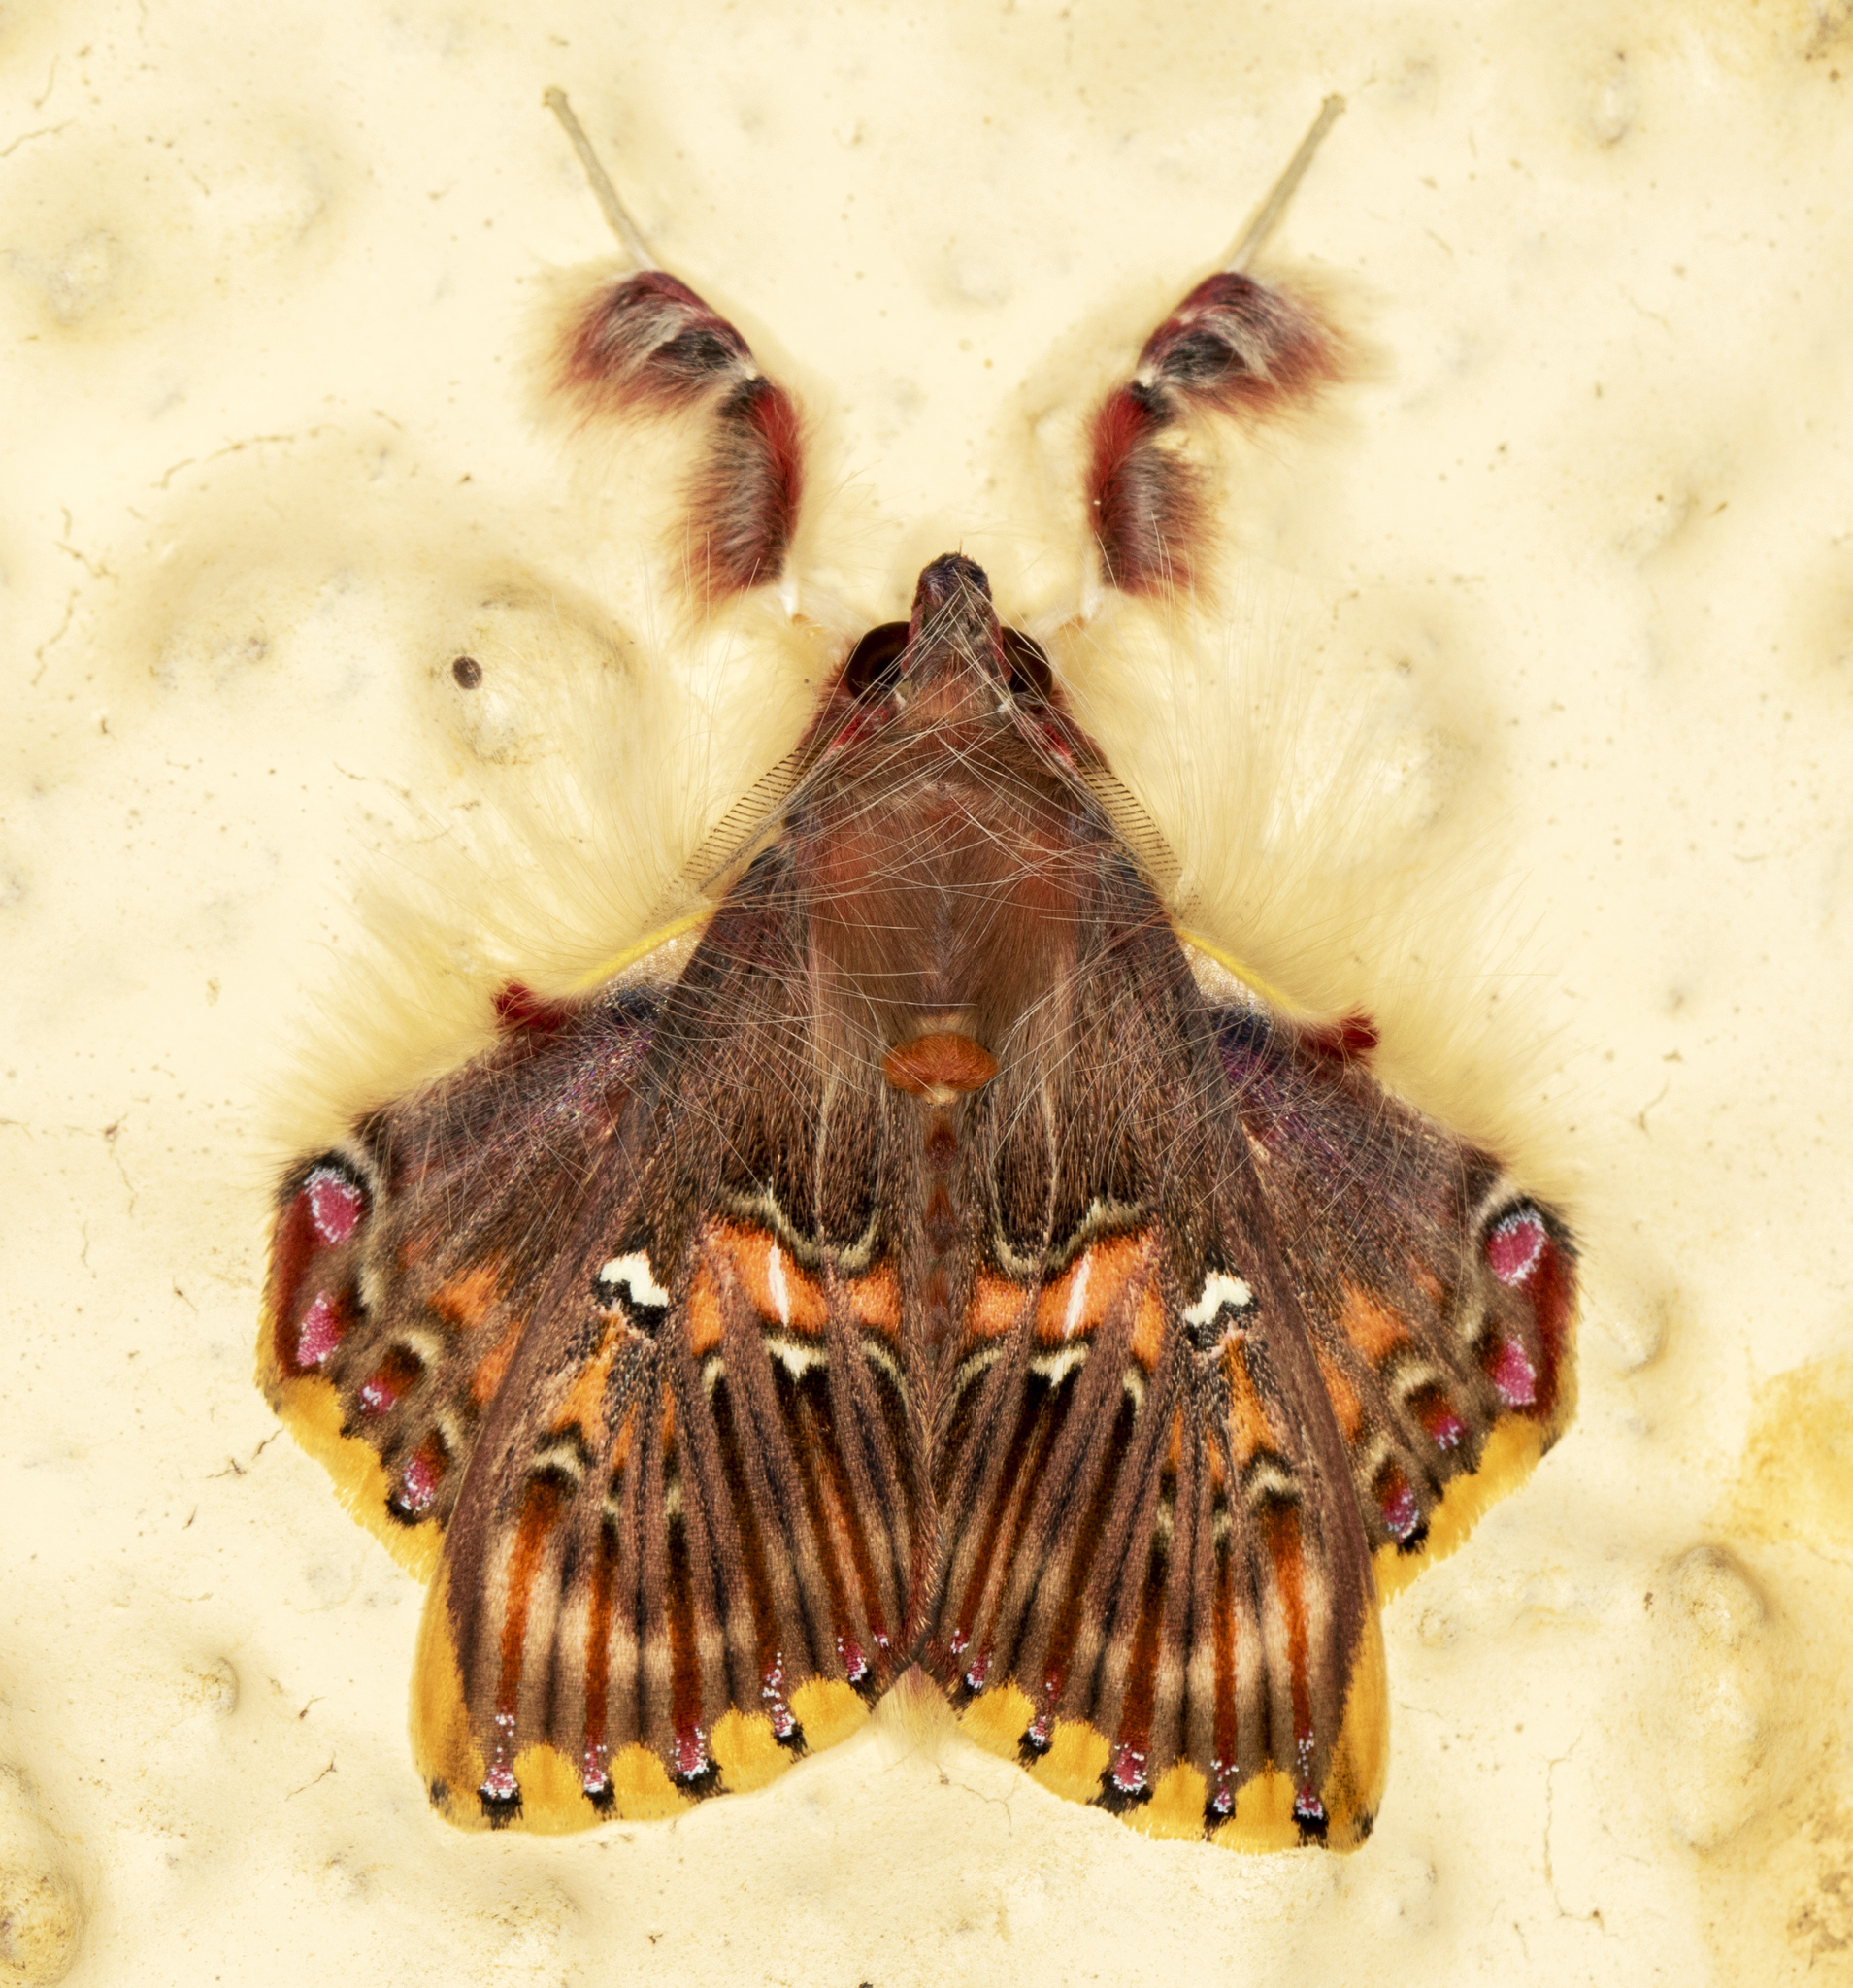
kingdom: Animalia
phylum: Arthropoda
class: Insecta
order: Lepidoptera
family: Erebidae
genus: Sosxetra
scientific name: Sosxetra grata
